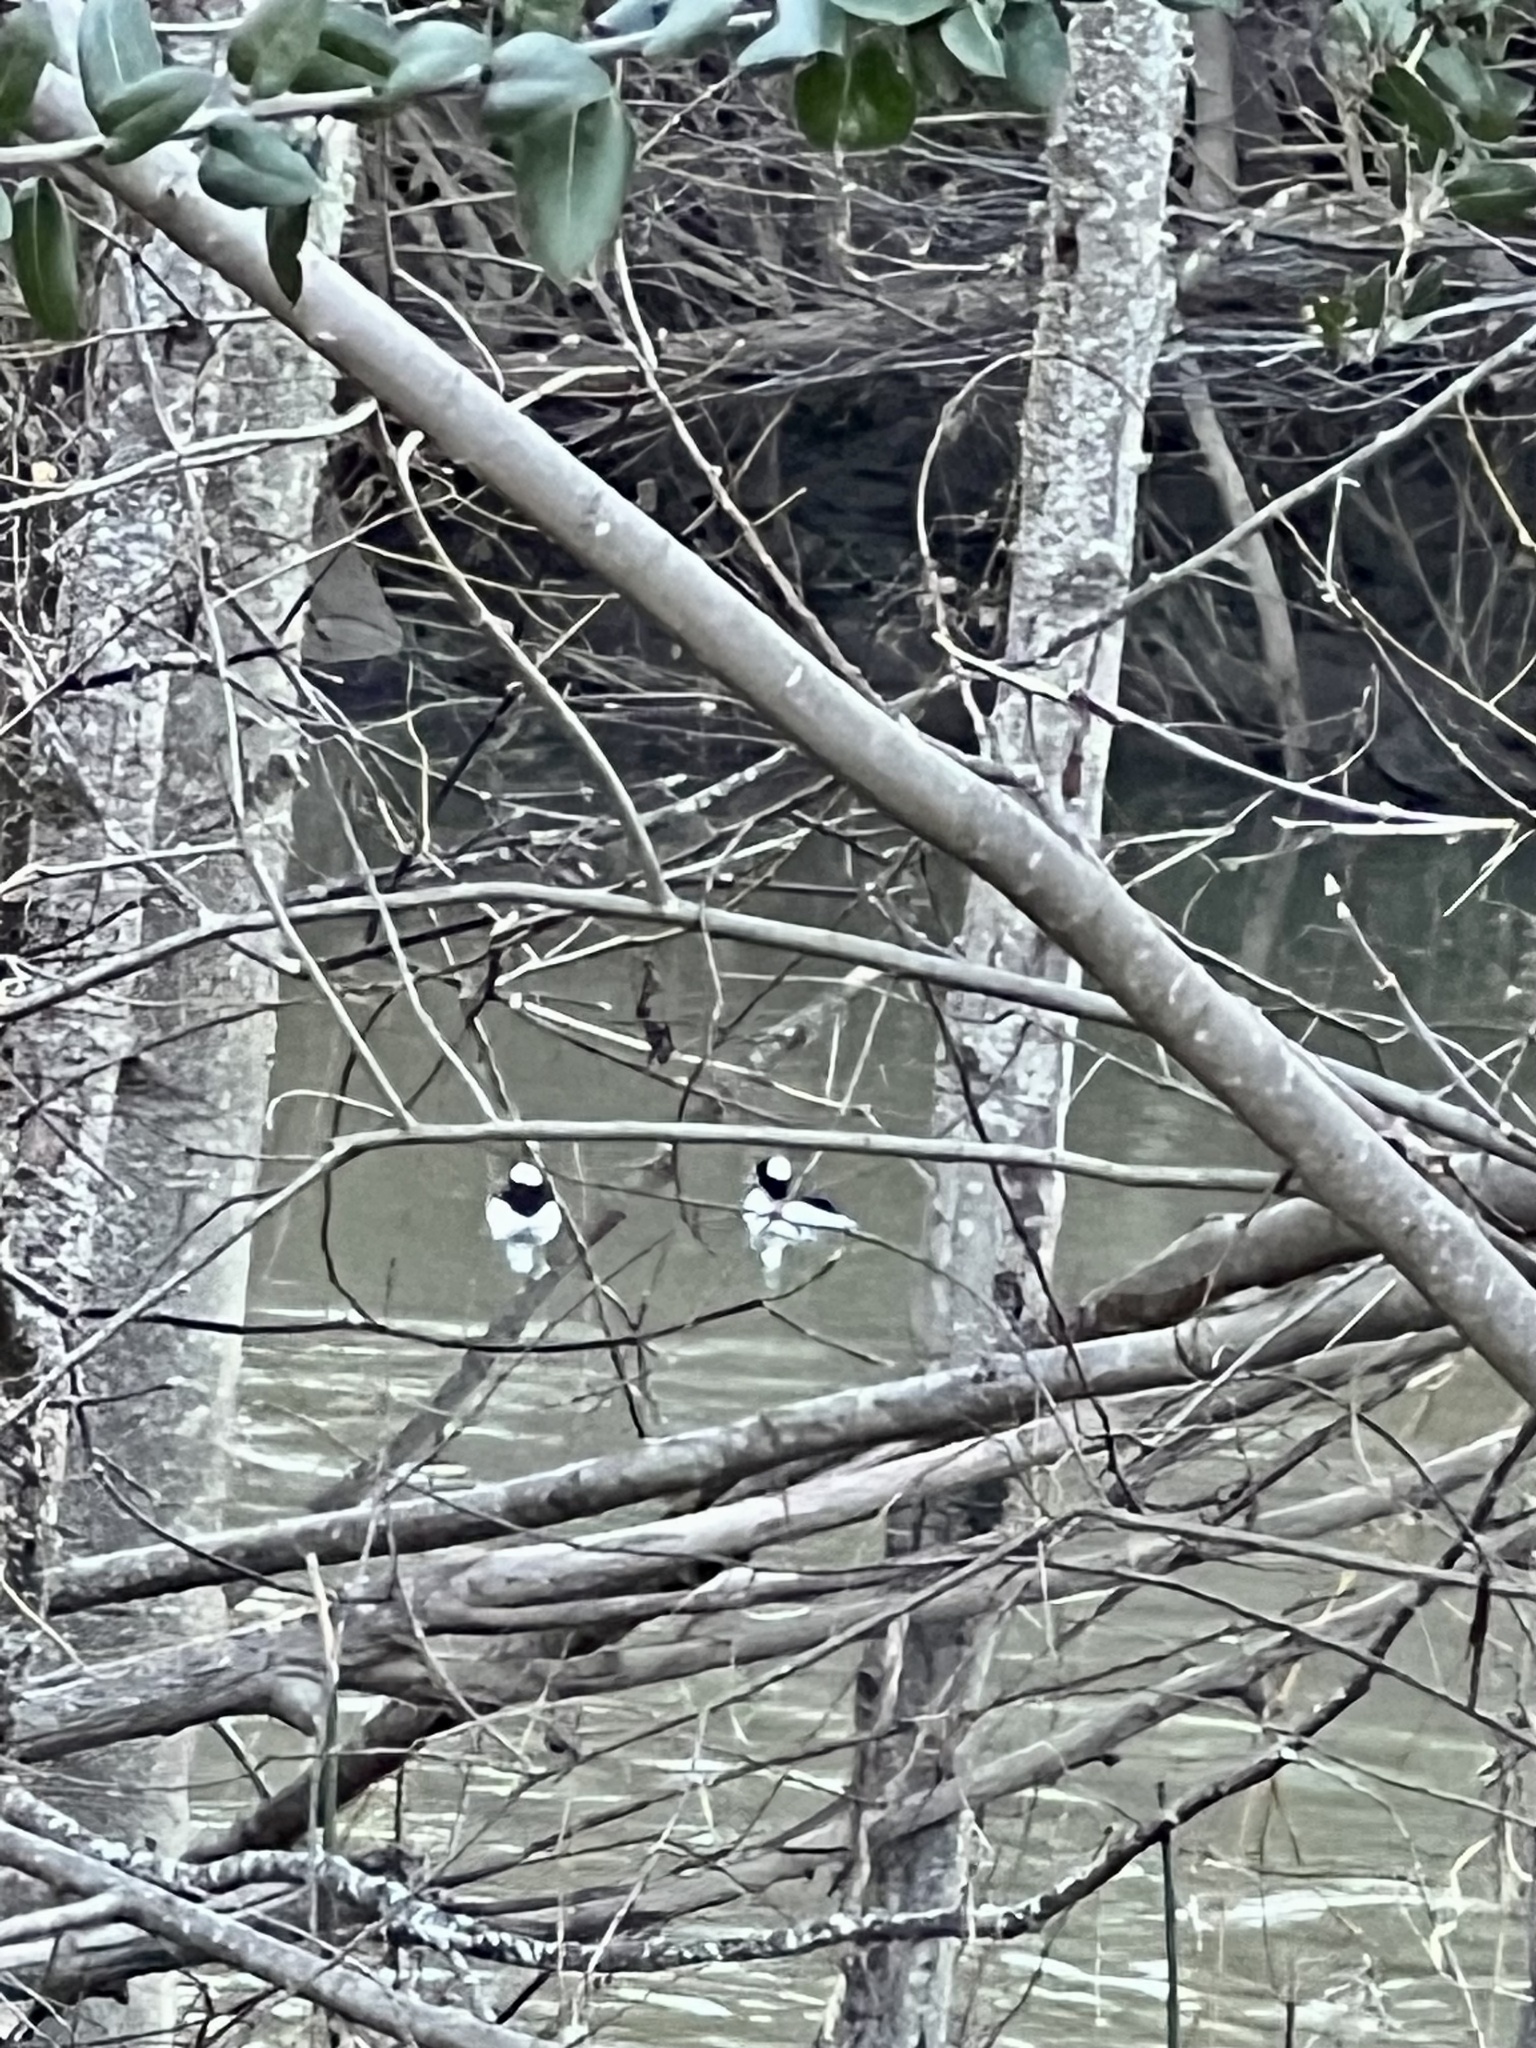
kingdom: Animalia
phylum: Chordata
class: Aves
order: Anseriformes
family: Anatidae
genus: Bucephala
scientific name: Bucephala albeola
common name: Bufflehead
